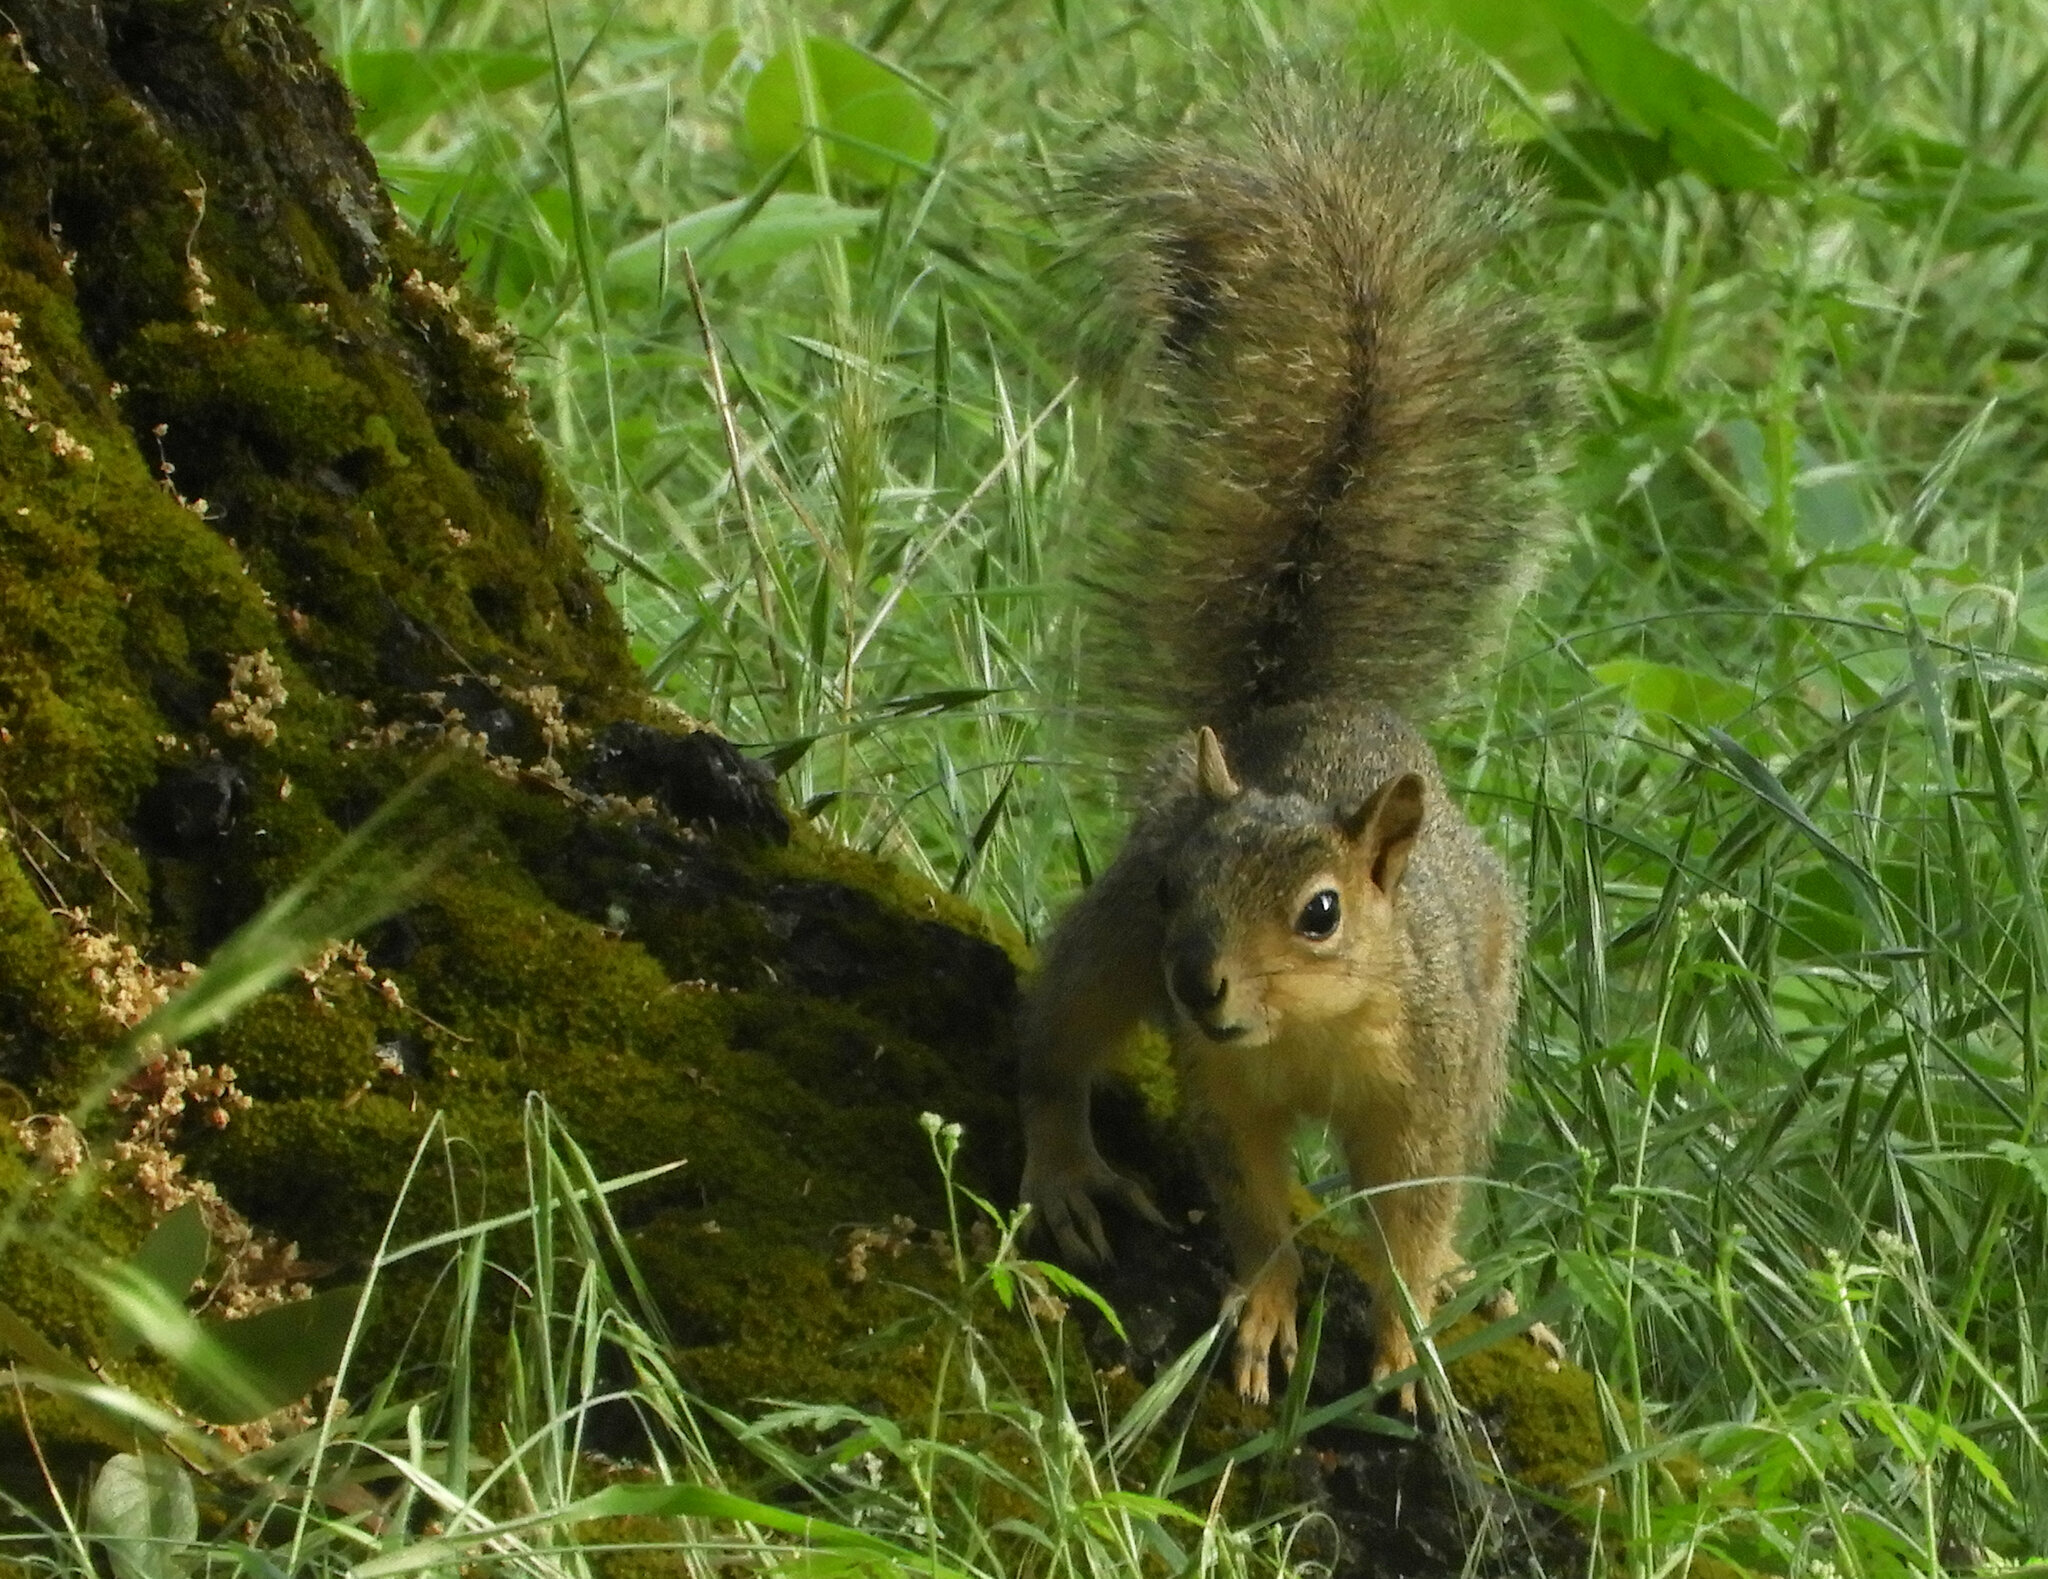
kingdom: Animalia
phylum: Chordata
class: Mammalia
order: Rodentia
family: Sciuridae
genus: Sciurus
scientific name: Sciurus niger
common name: Fox squirrel
